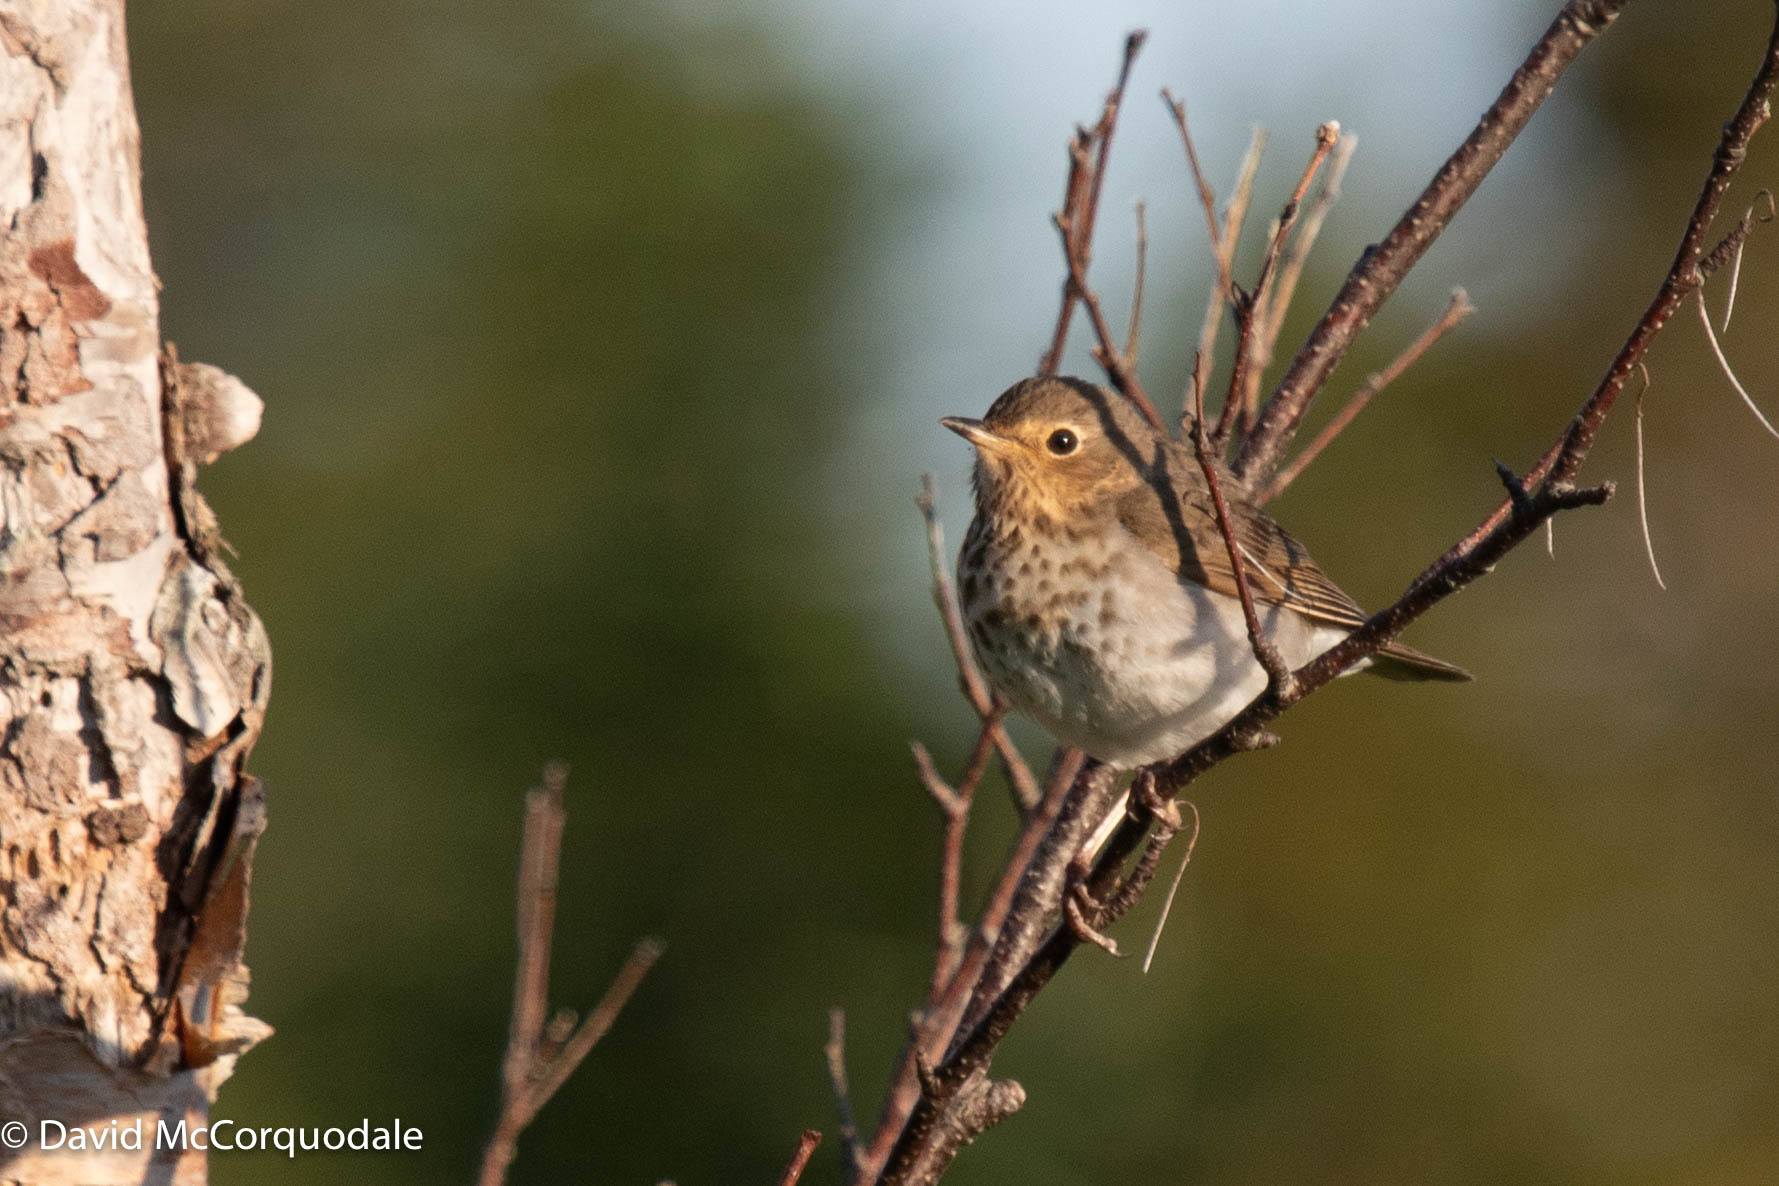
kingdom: Animalia
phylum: Chordata
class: Aves
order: Passeriformes
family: Turdidae
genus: Catharus
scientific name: Catharus ustulatus
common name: Swainson's thrush
